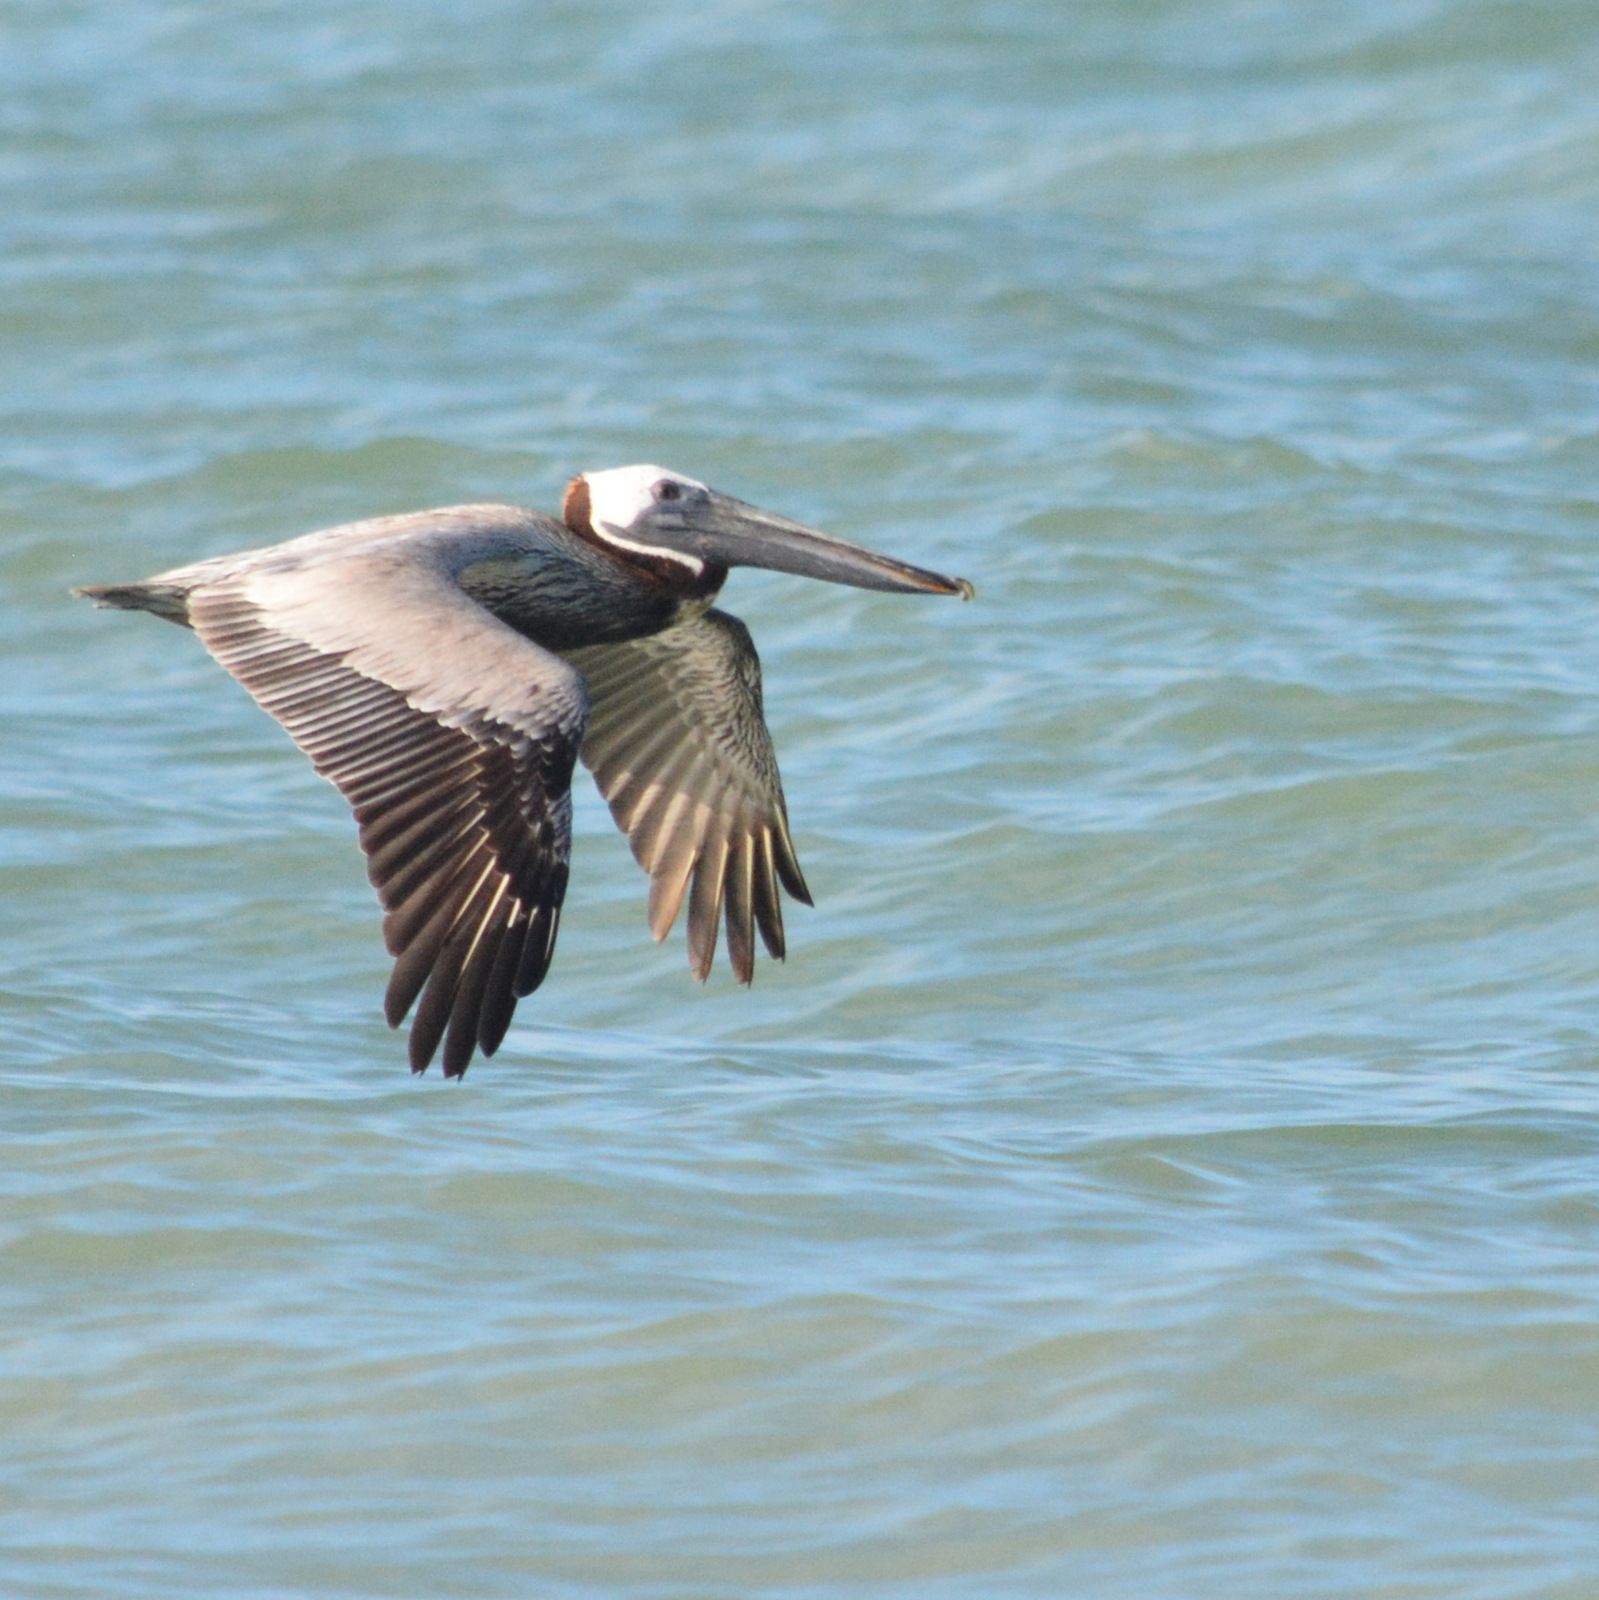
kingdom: Animalia
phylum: Chordata
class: Aves
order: Pelecaniformes
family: Pelecanidae
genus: Pelecanus
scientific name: Pelecanus occidentalis
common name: Brown pelican
